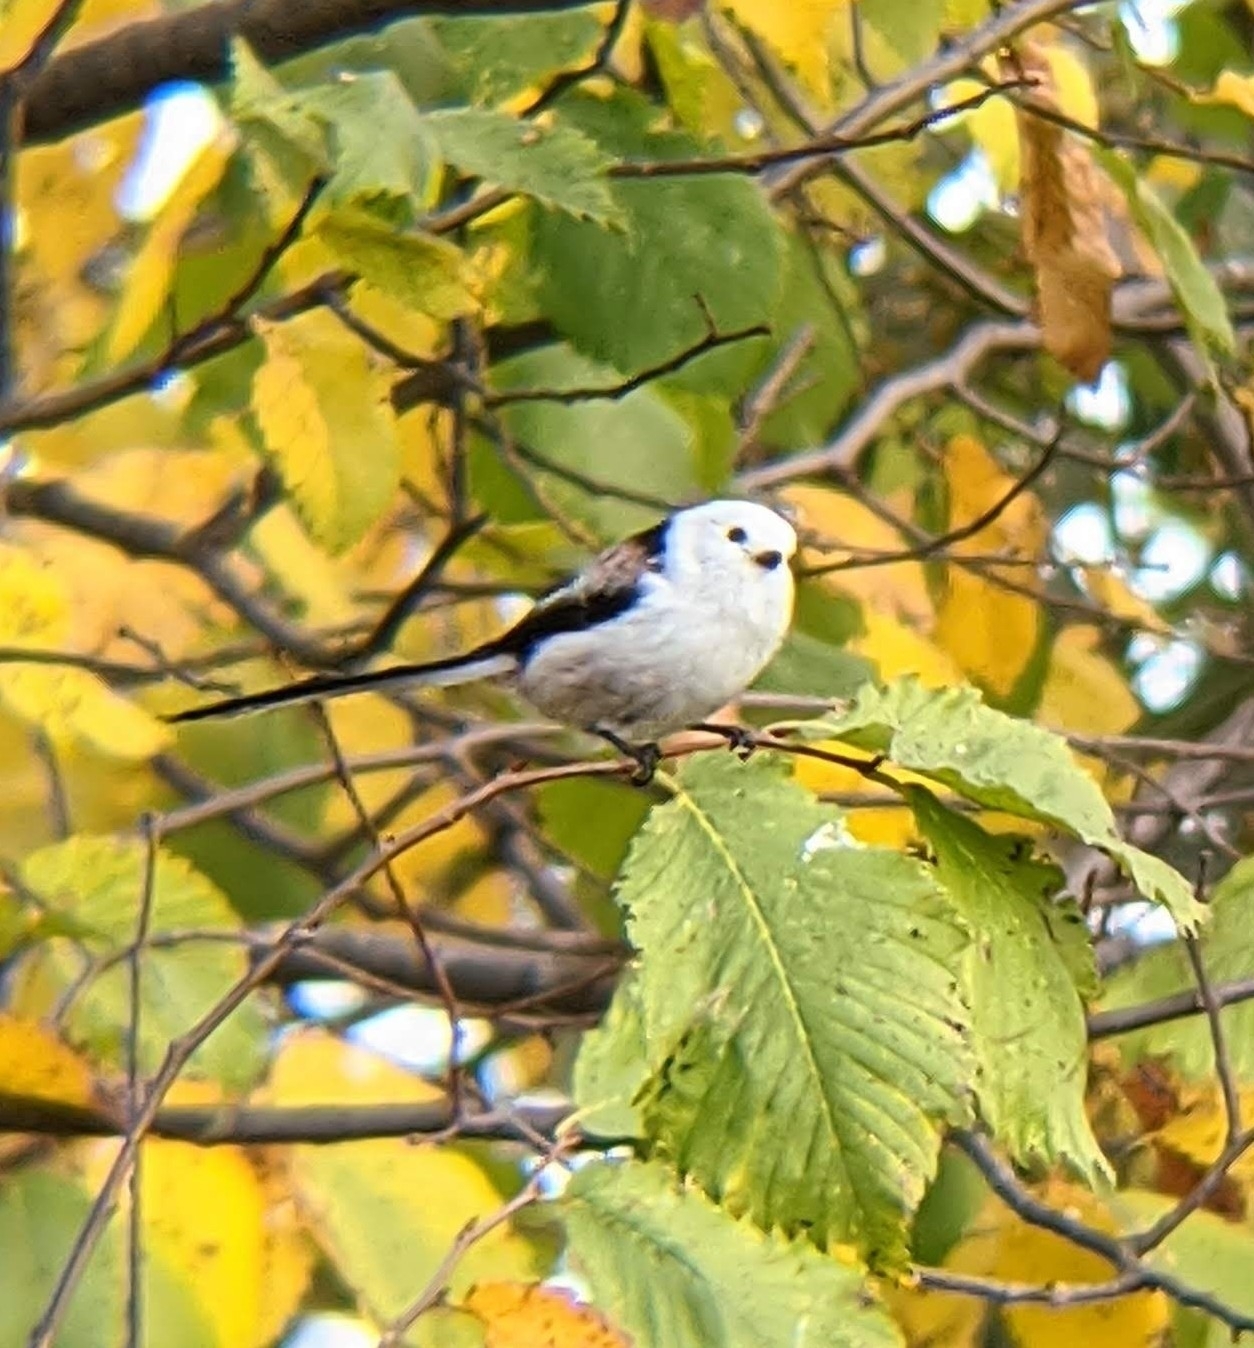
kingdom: Animalia
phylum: Chordata
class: Aves
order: Passeriformes
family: Aegithalidae
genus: Aegithalos
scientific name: Aegithalos caudatus
